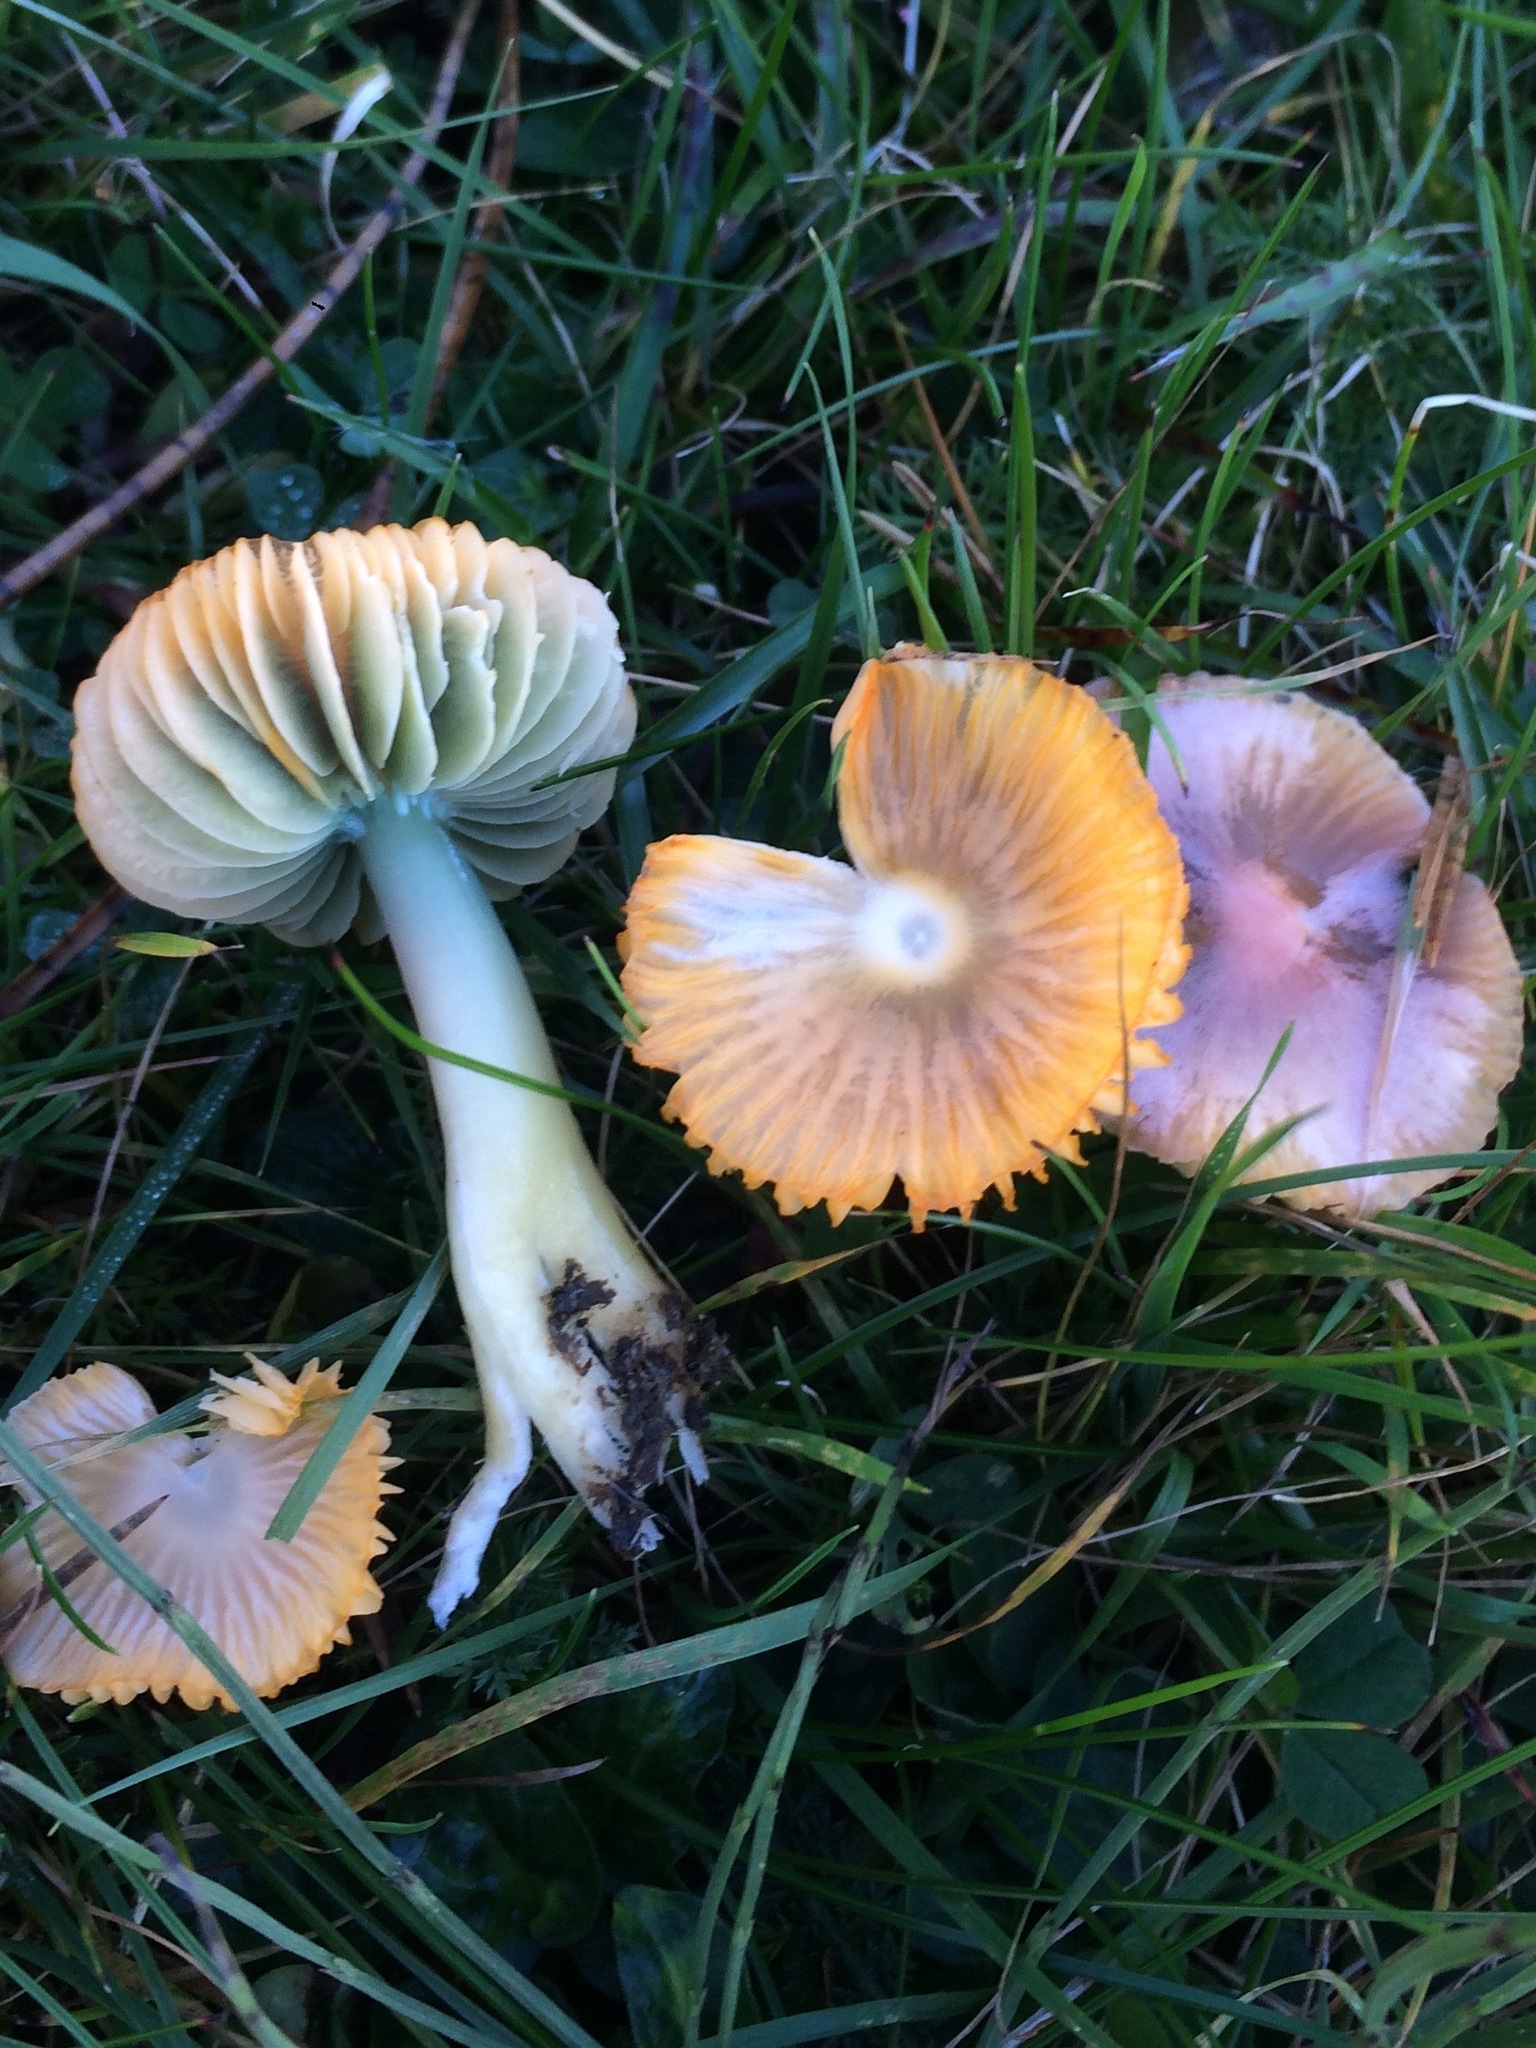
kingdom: Fungi
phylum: Basidiomycota
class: Agaricomycetes
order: Agaricales
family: Hygrophoraceae
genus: Gliophorus
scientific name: Gliophorus psittacinus
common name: Parrot wax-cap
